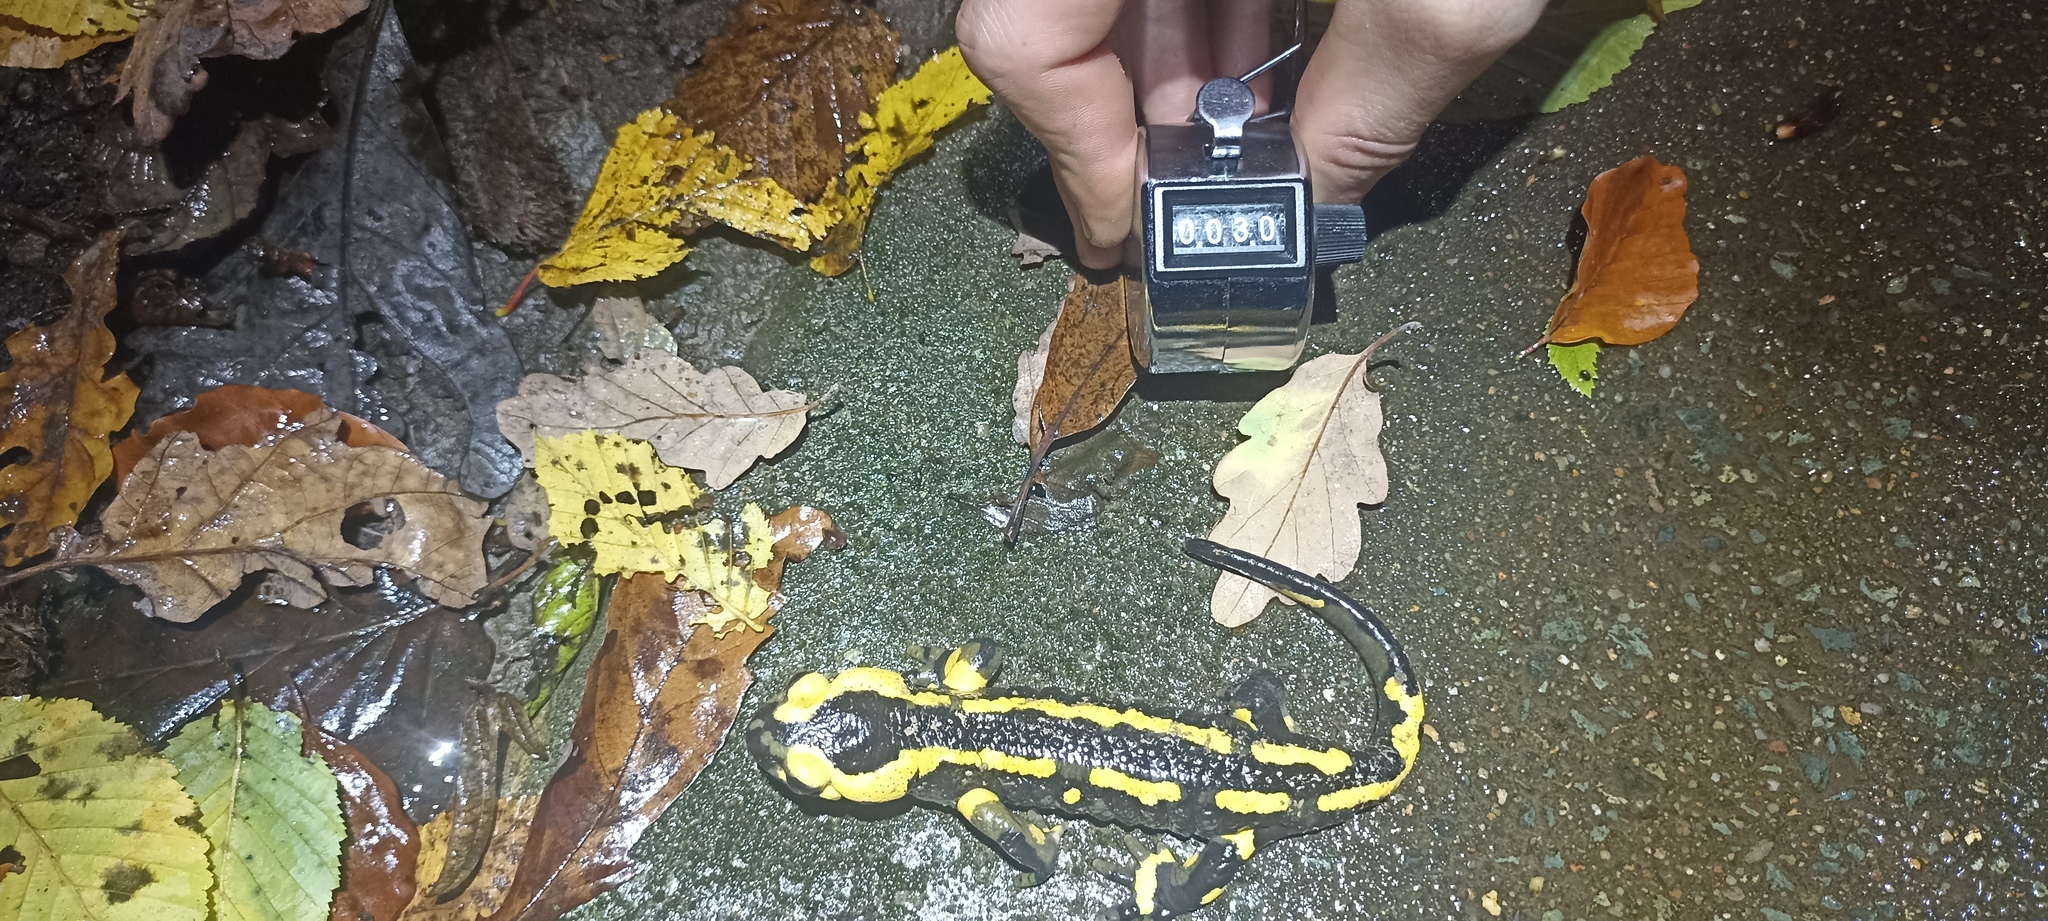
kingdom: Animalia
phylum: Chordata
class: Amphibia
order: Caudata
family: Salamandridae
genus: Salamandra
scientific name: Salamandra salamandra
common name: Fire salamander
